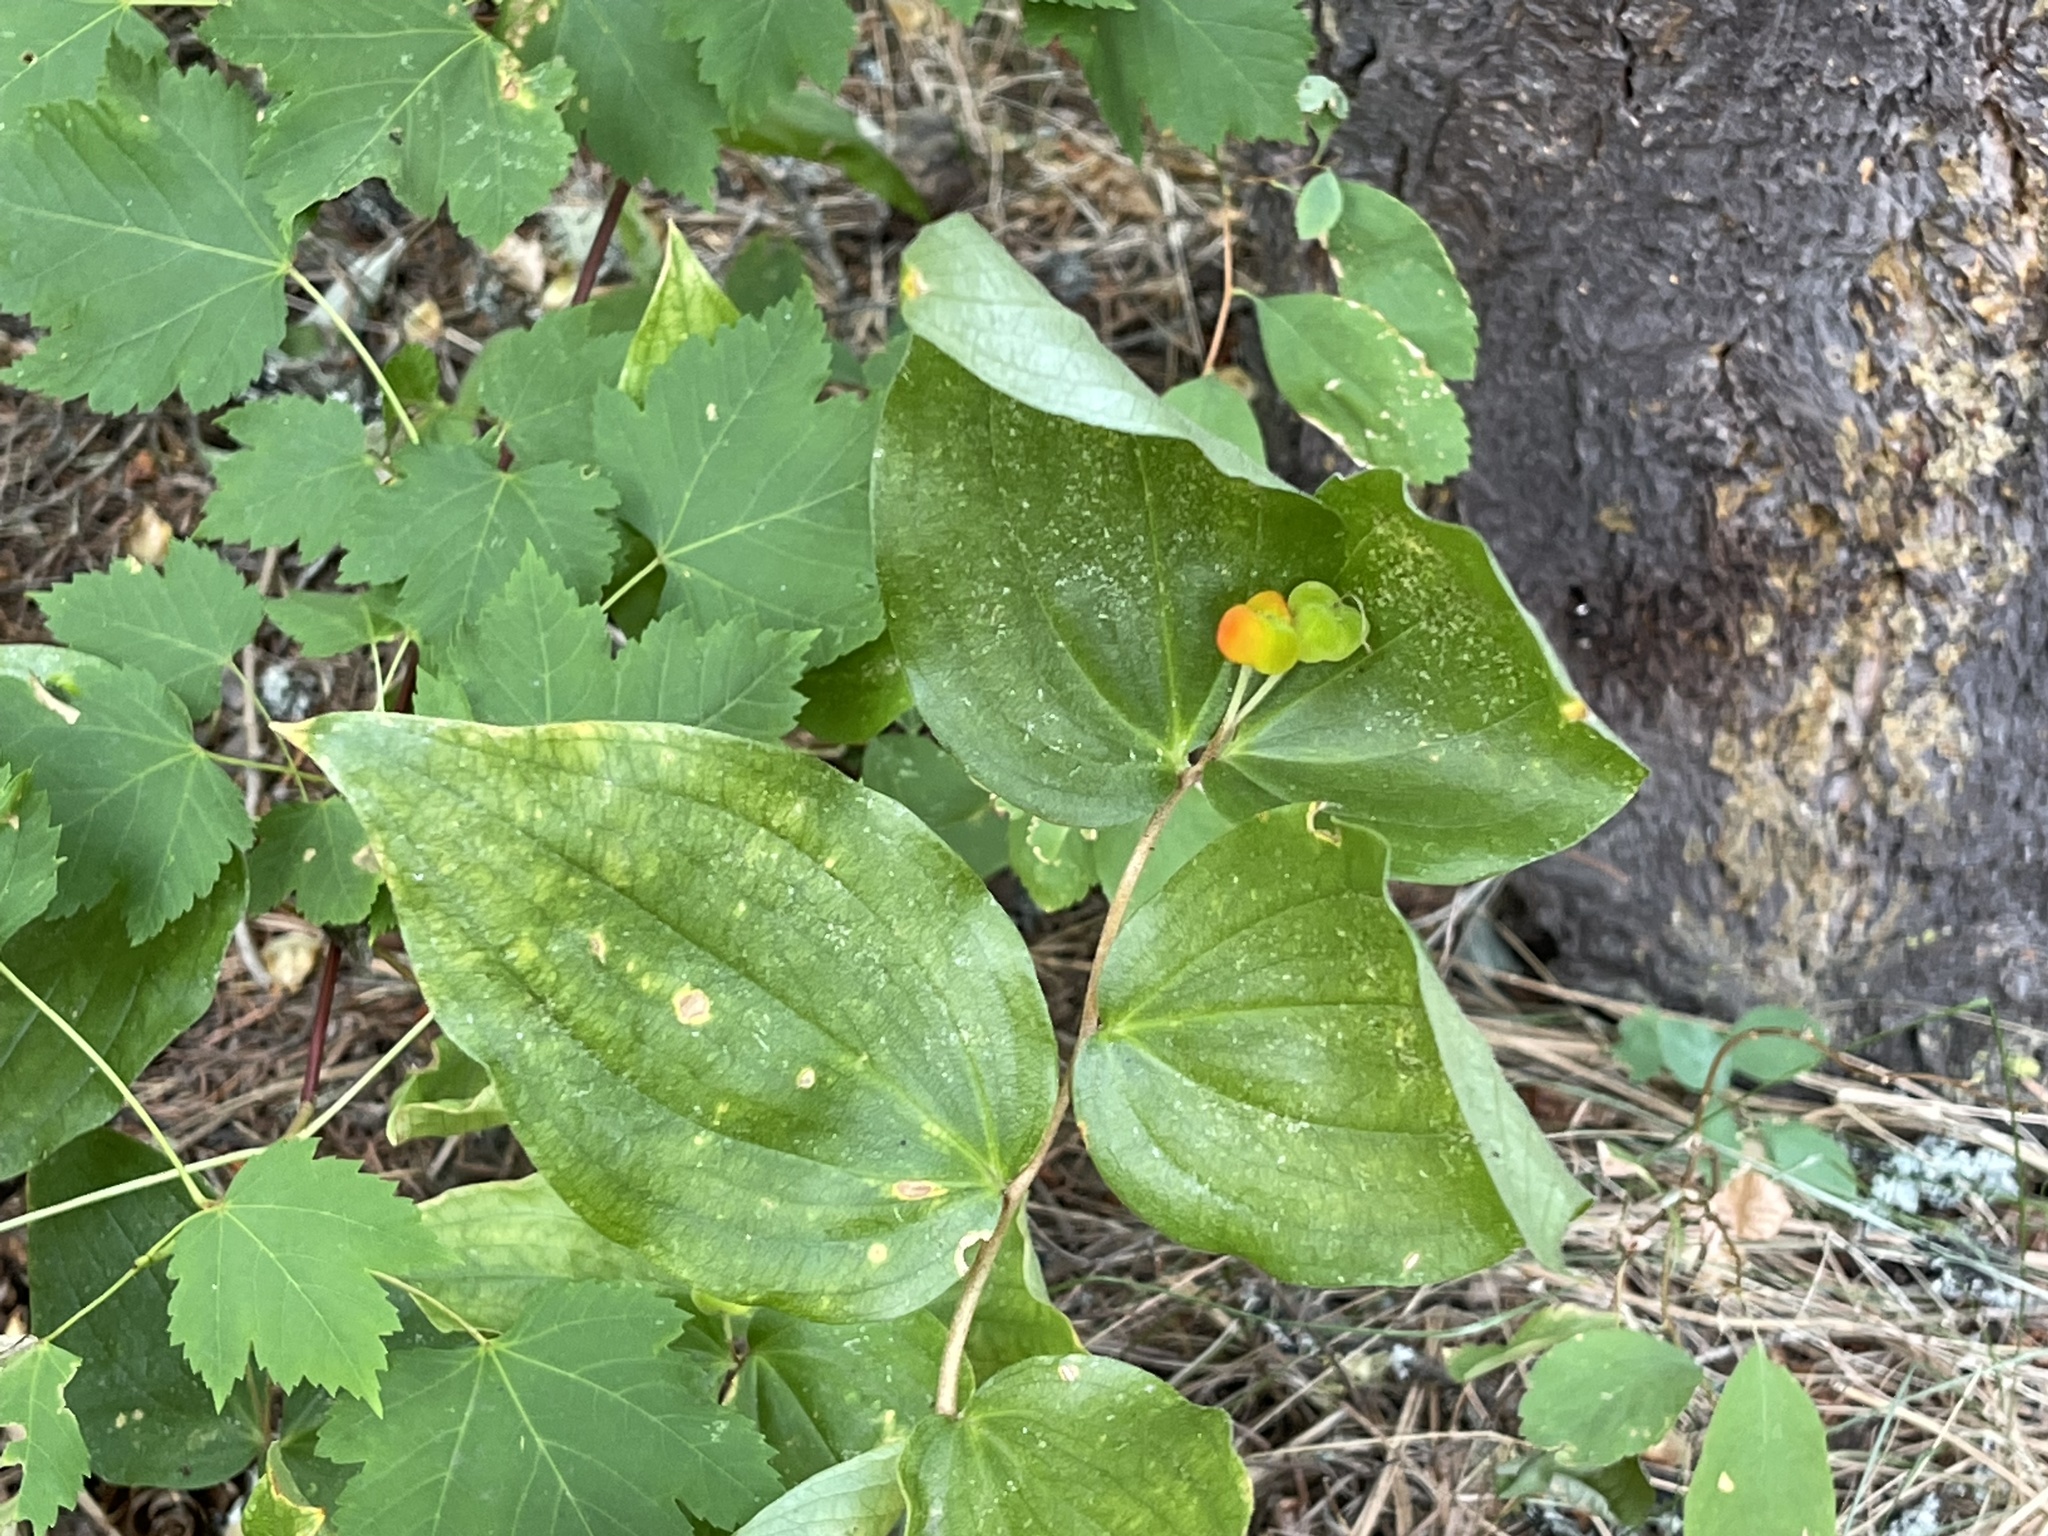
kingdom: Plantae
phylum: Tracheophyta
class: Liliopsida
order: Liliales
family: Liliaceae
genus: Prosartes
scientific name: Prosartes trachycarpa
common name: Rough-fruit fairy-bells
